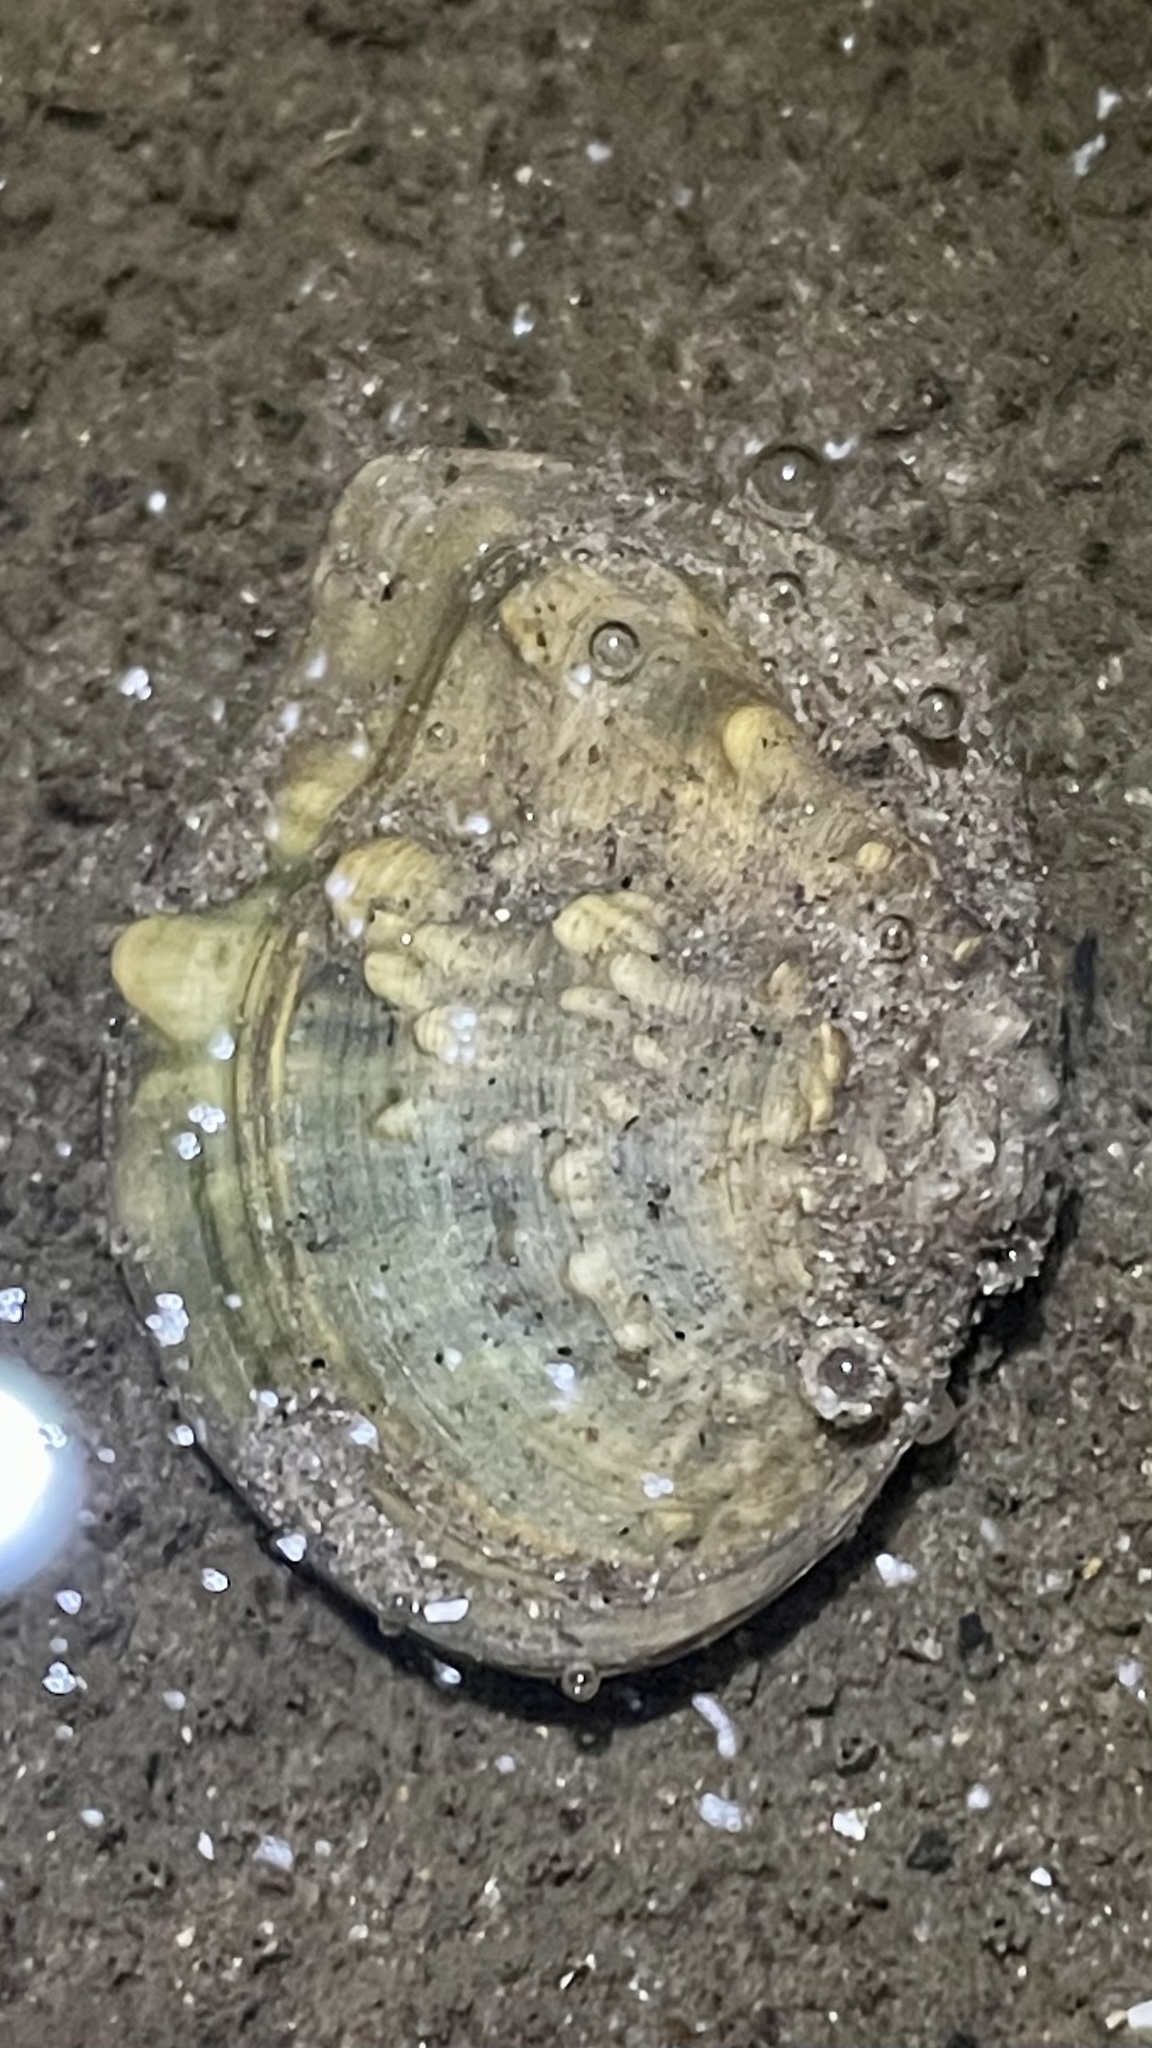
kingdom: Animalia
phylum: Mollusca
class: Bivalvia
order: Unionida
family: Unionidae
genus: Quadrula
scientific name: Quadrula quadrula
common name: Mapleleaf
